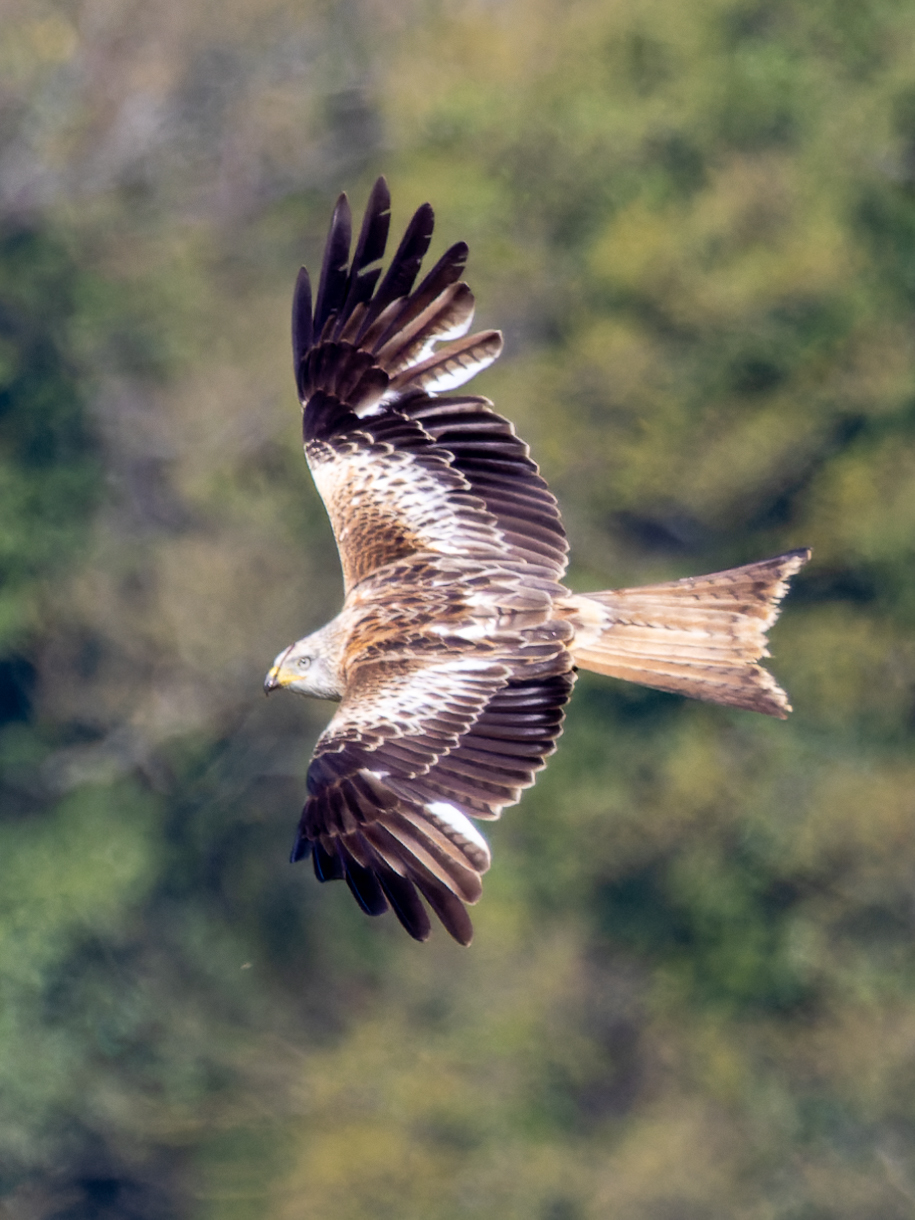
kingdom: Animalia
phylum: Chordata
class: Aves
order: Accipitriformes
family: Accipitridae
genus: Milvus
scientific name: Milvus milvus
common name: Red kite
